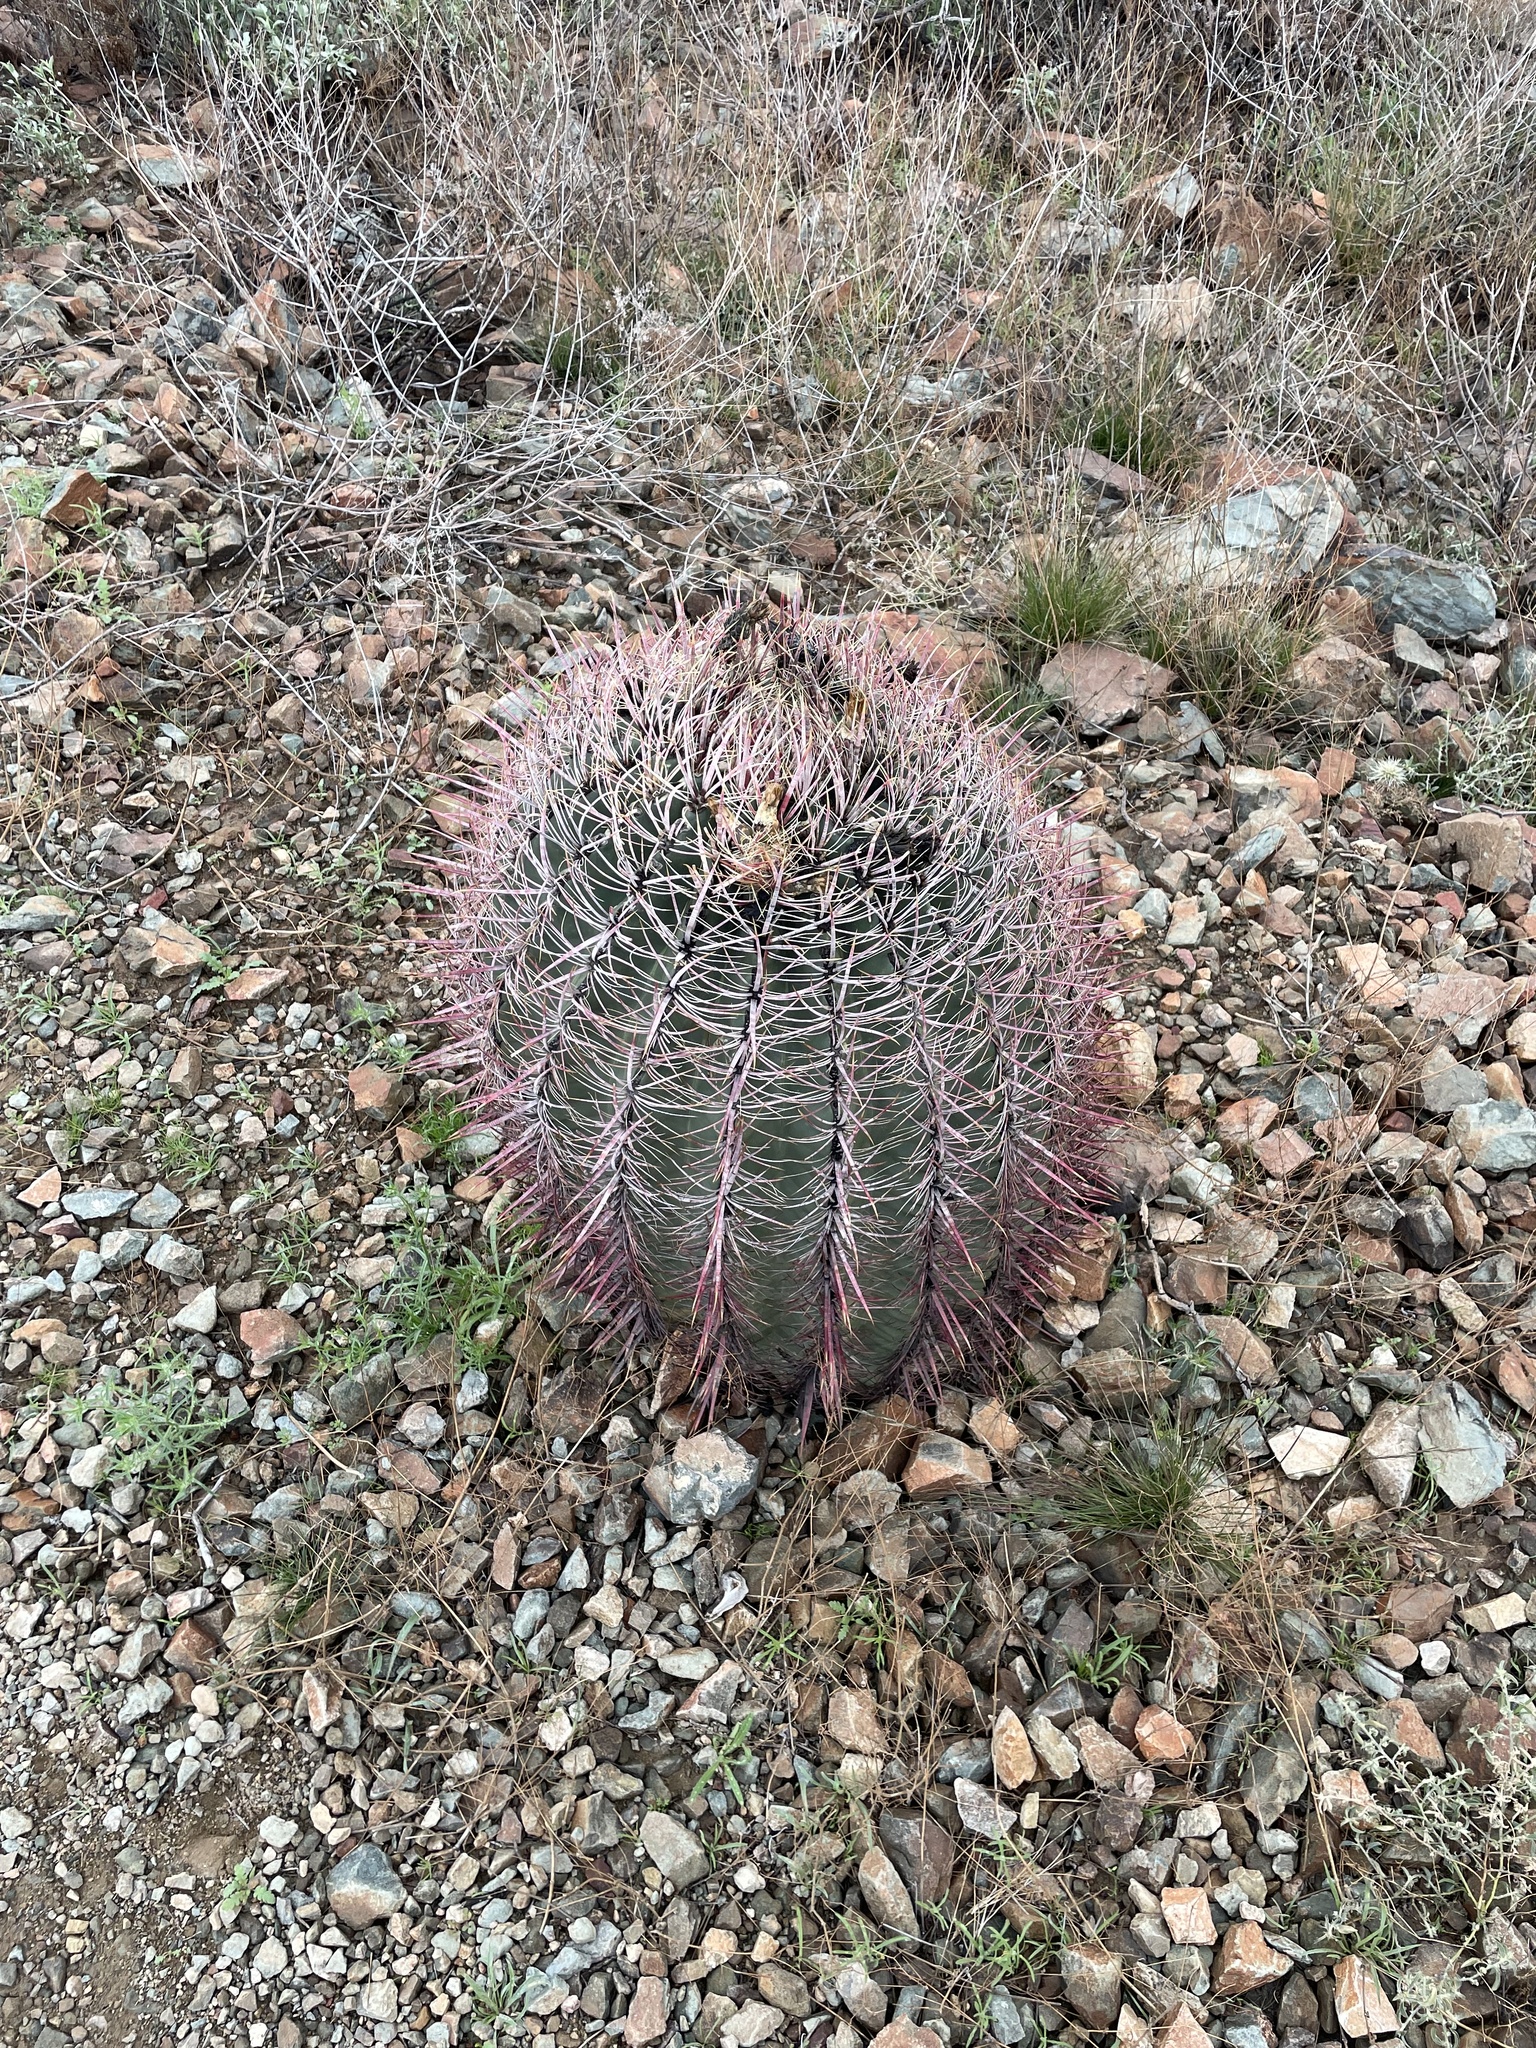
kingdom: Plantae
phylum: Tracheophyta
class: Magnoliopsida
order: Caryophyllales
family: Cactaceae
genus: Ferocactus
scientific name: Ferocactus cylindraceus
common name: California barrel cactus
